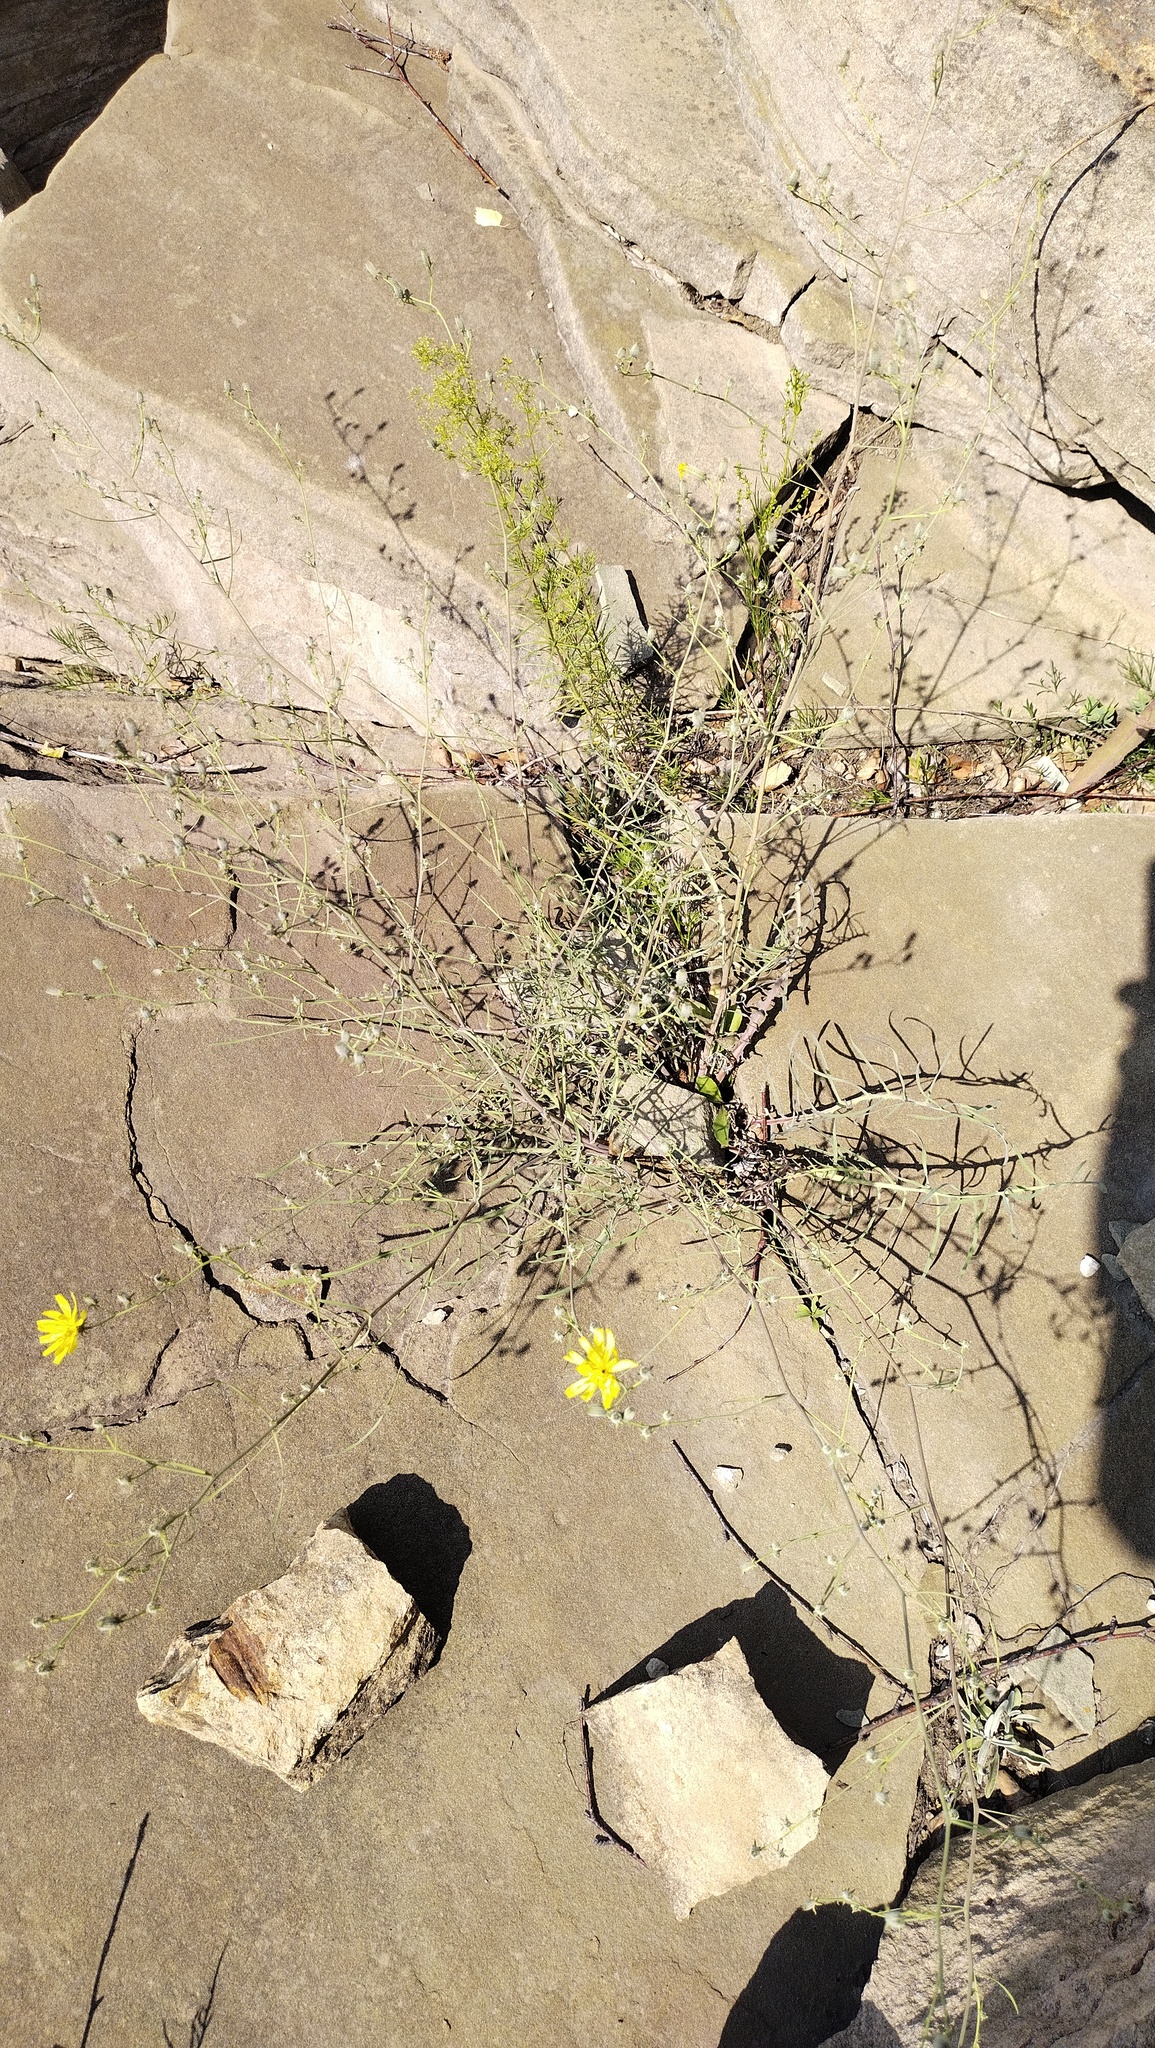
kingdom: Plantae
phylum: Tracheophyta
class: Magnoliopsida
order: Asterales
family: Asteraceae
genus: Crepidiastrum
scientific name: Crepidiastrum tenuifolium
